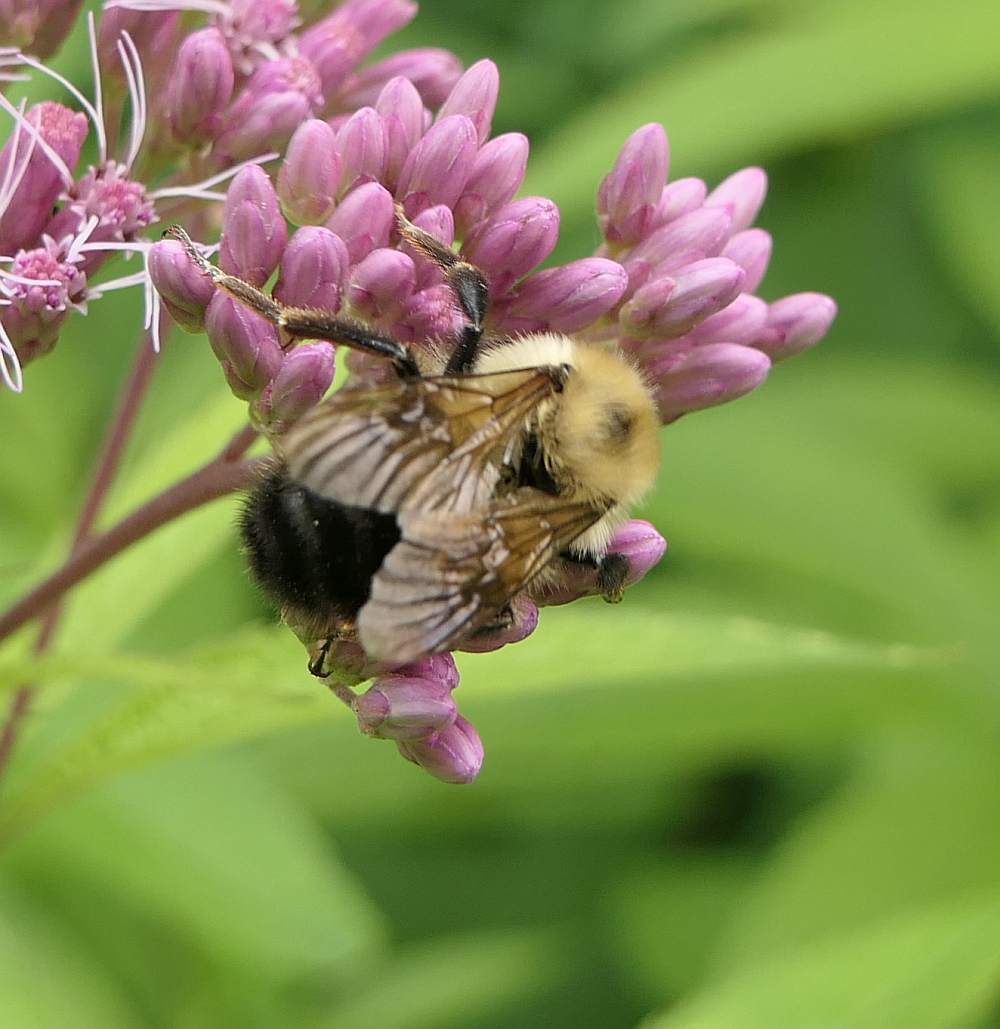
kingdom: Animalia
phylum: Arthropoda
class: Insecta
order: Hymenoptera
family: Apidae
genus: Bombus
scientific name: Bombus bimaculatus
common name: Two-spotted bumble bee
